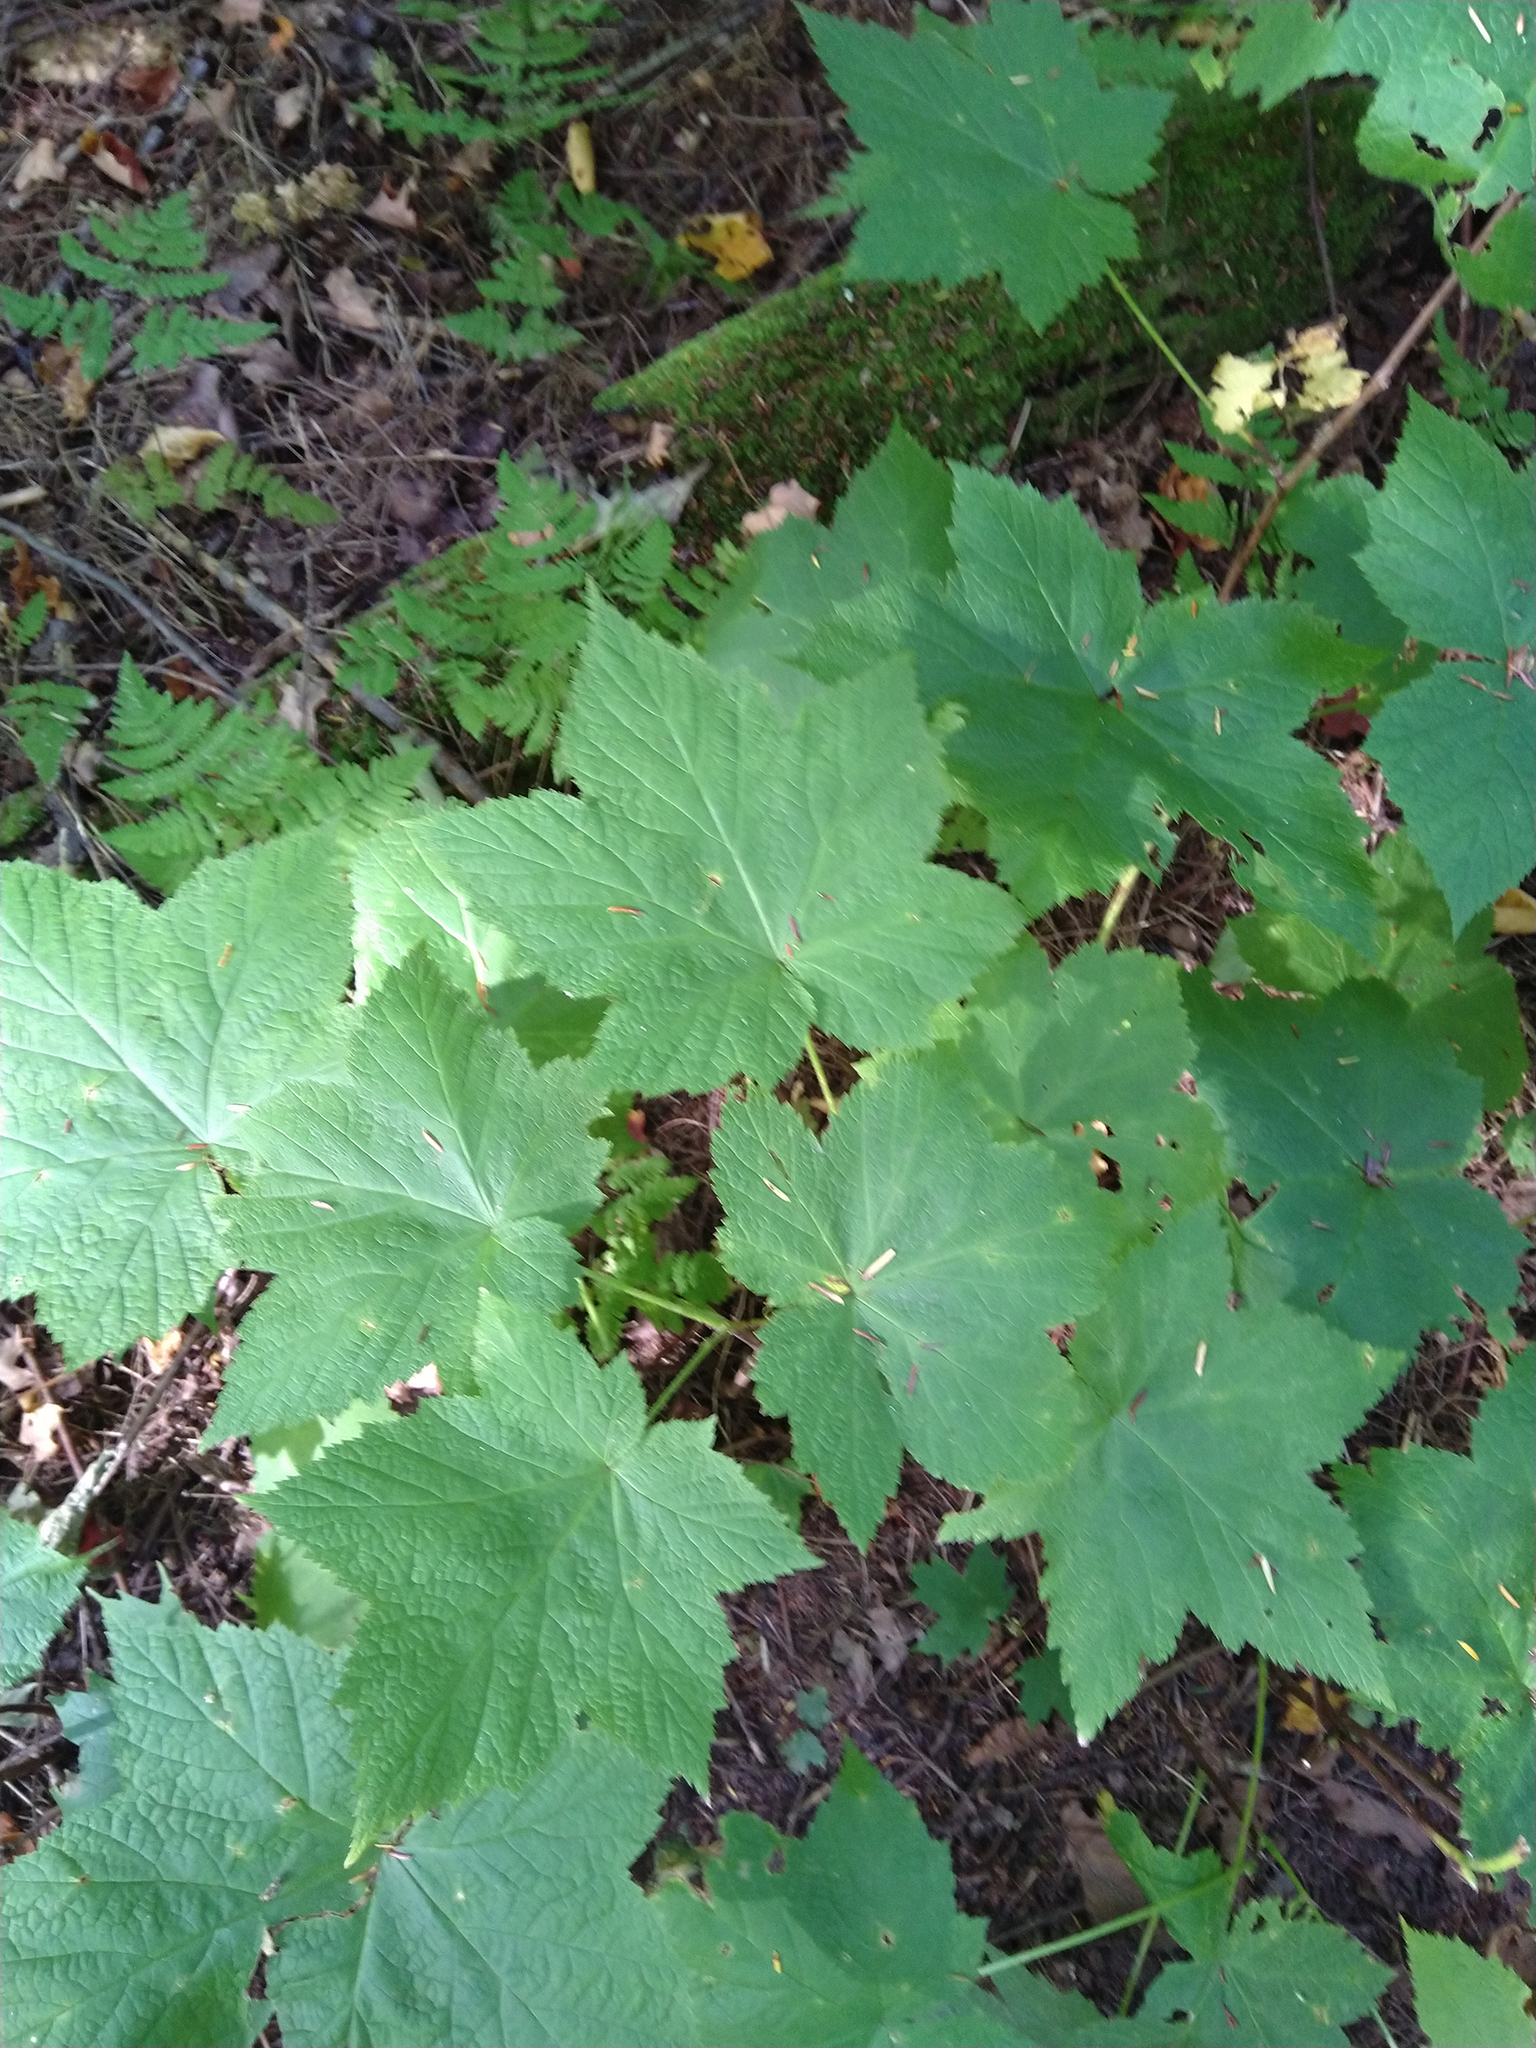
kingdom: Plantae
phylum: Tracheophyta
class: Magnoliopsida
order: Rosales
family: Rosaceae
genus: Rubus
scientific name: Rubus parviflorus
